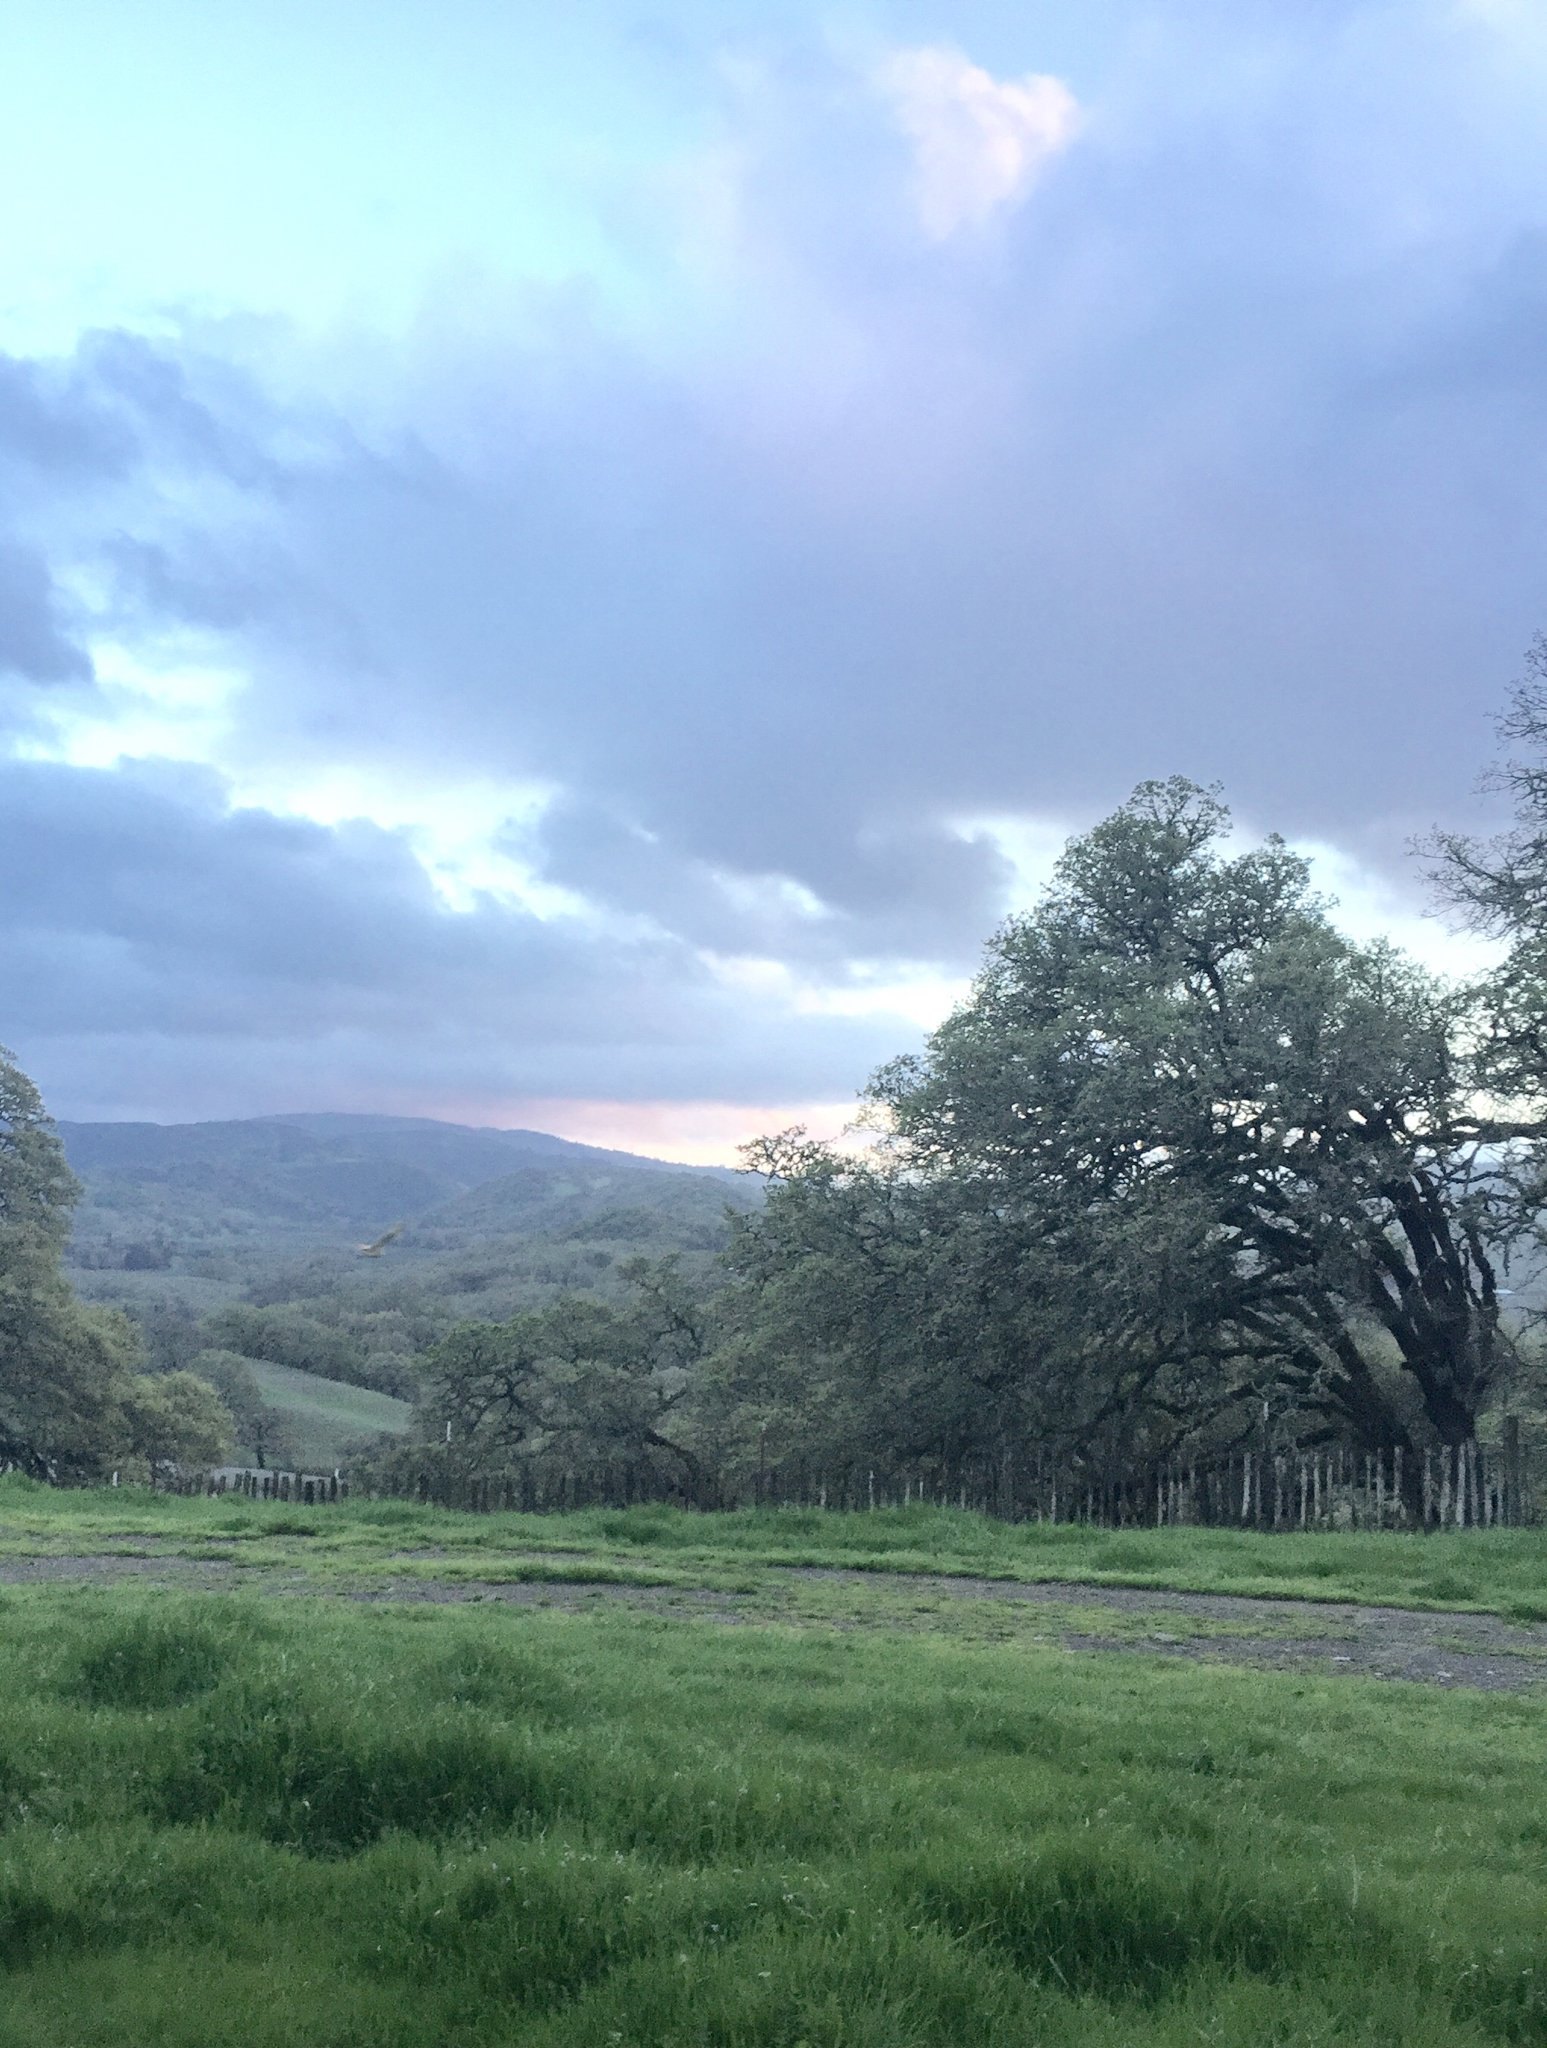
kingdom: Animalia
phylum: Chordata
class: Aves
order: Strigiformes
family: Tytonidae
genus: Tyto
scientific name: Tyto alba
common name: Barn owl
